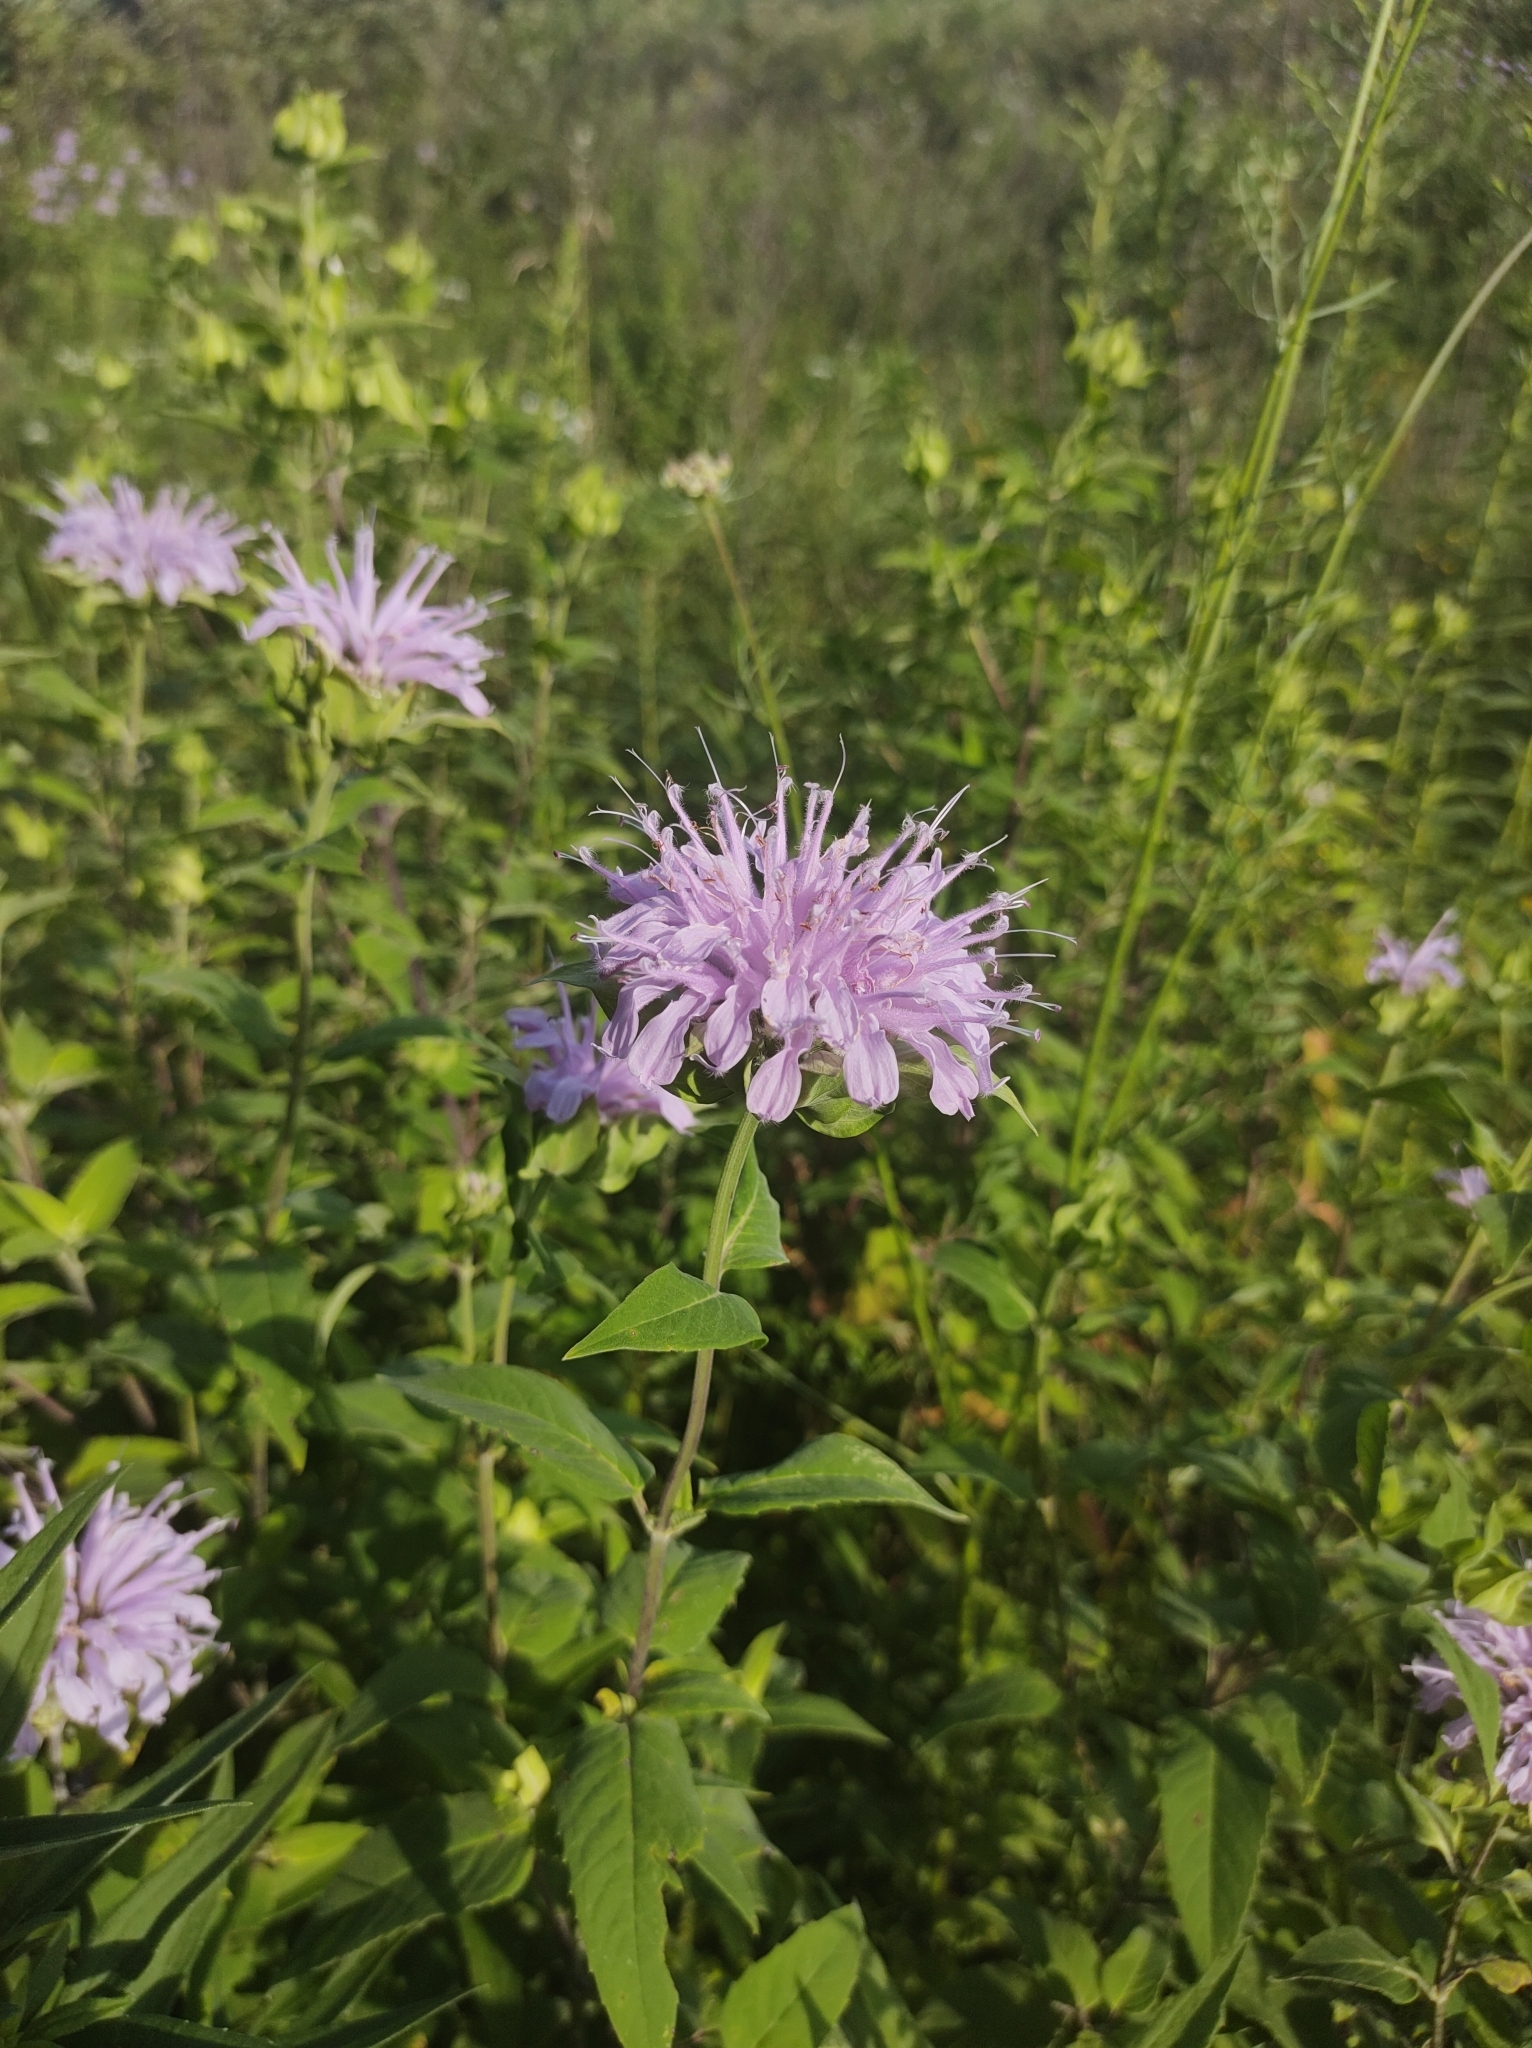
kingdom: Plantae
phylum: Tracheophyta
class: Magnoliopsida
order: Lamiales
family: Lamiaceae
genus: Monarda
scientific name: Monarda fistulosa
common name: Purple beebalm
